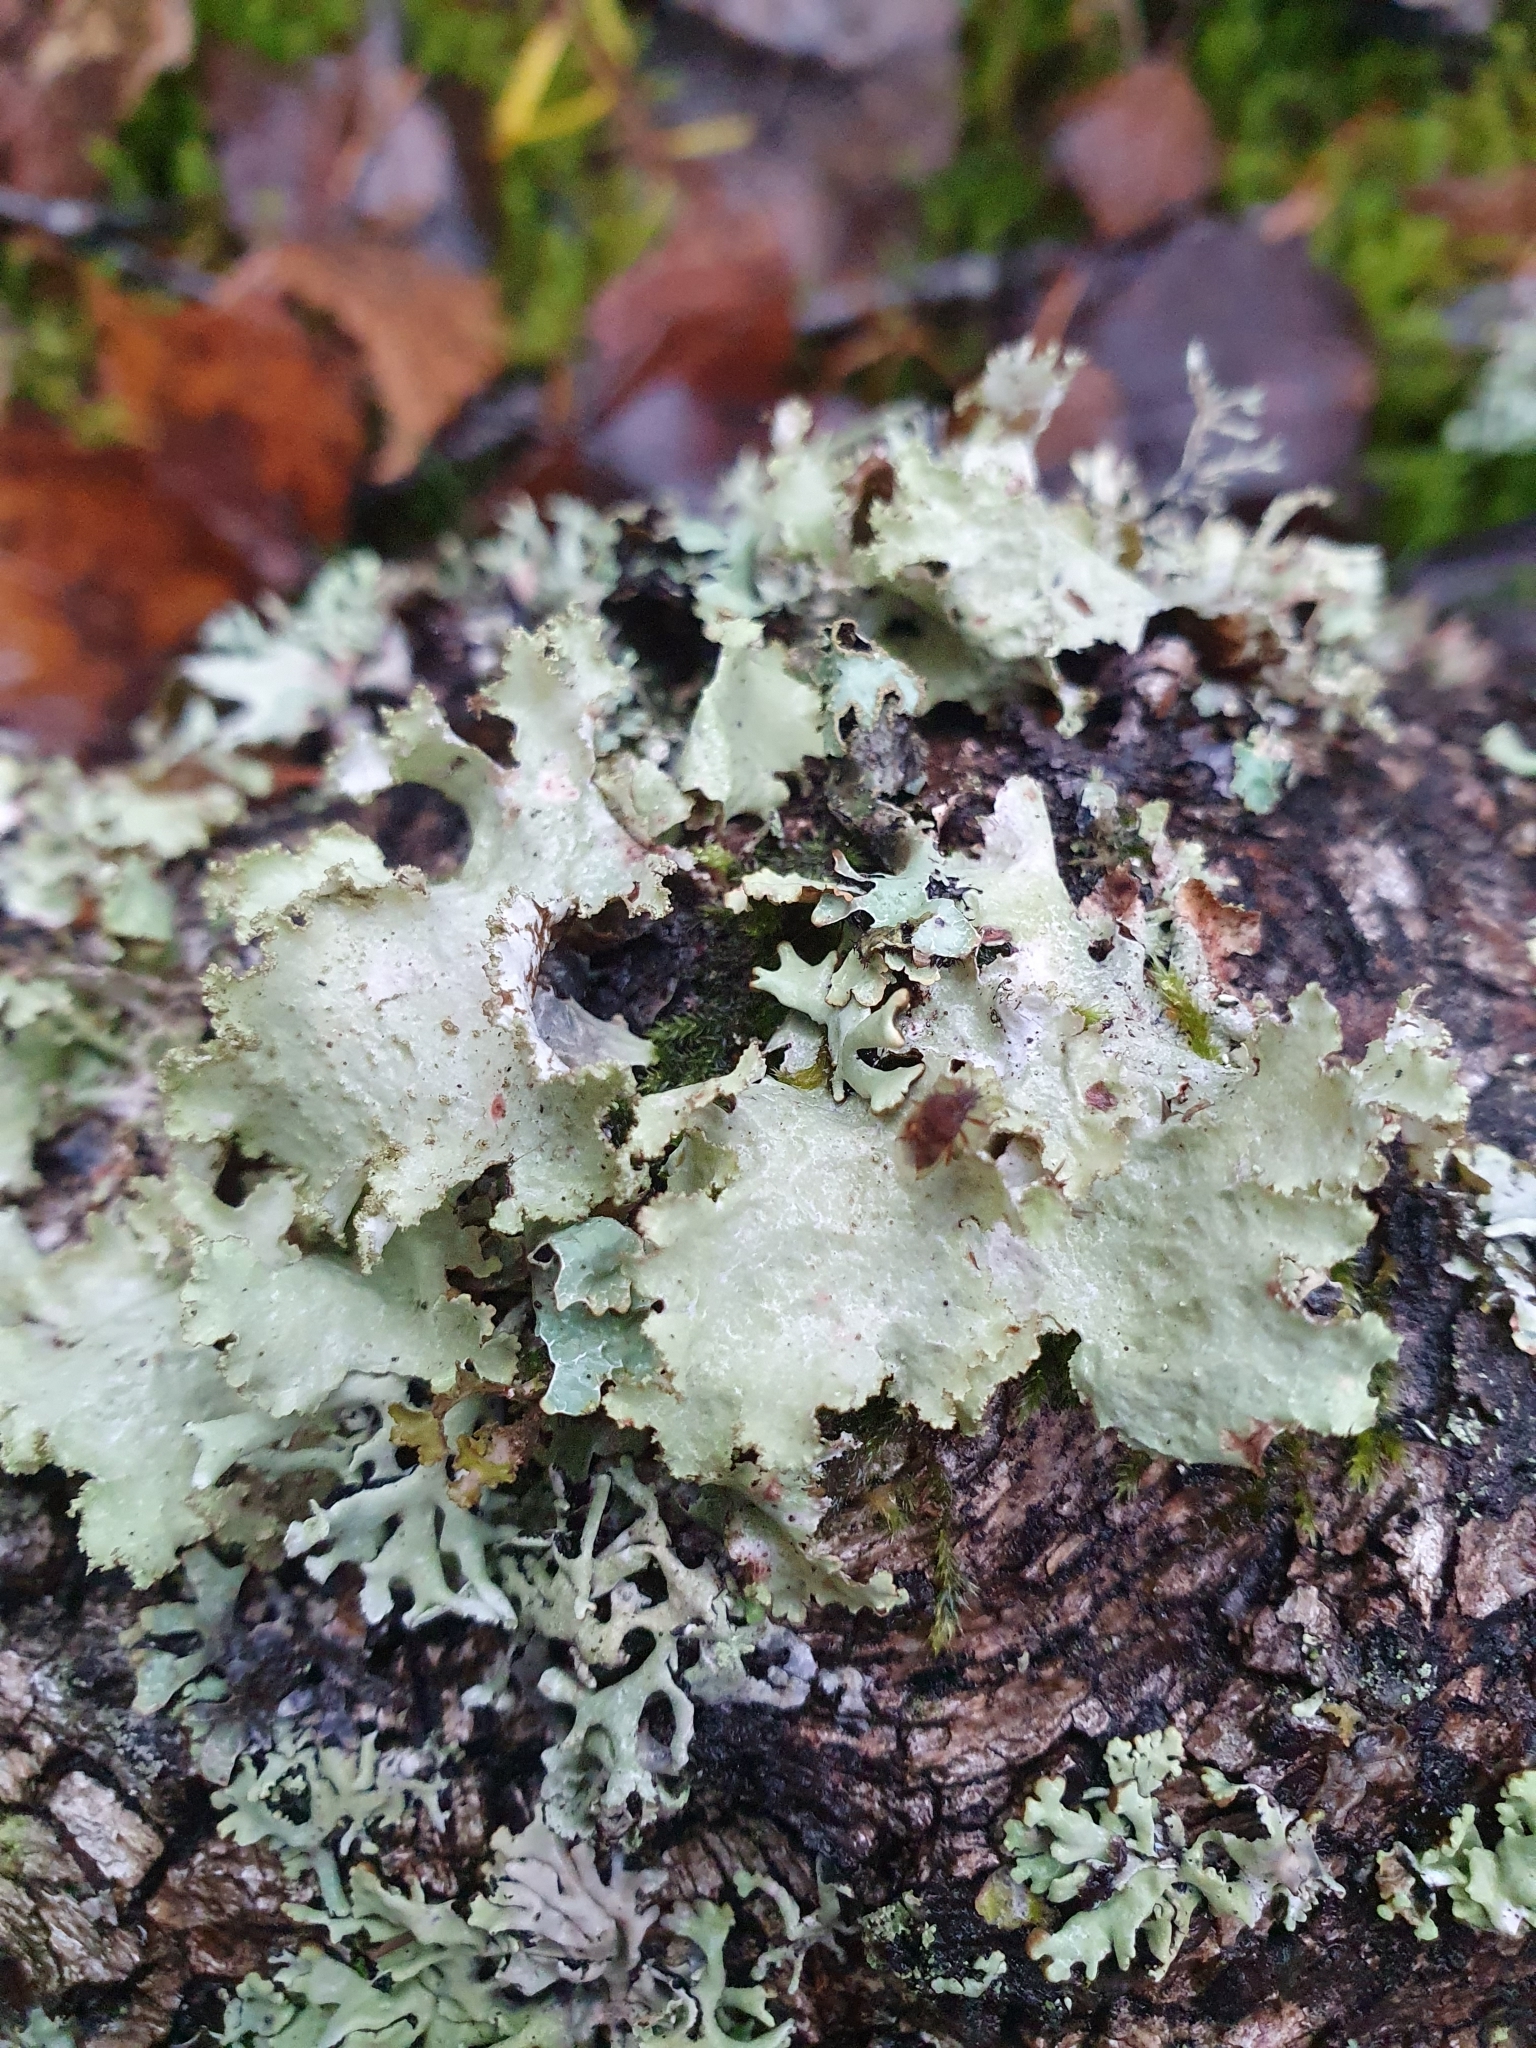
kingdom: Fungi
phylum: Ascomycota
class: Lecanoromycetes
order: Lecanorales
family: Parmeliaceae
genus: Platismatia
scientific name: Platismatia glauca
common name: Varied rag lichen
